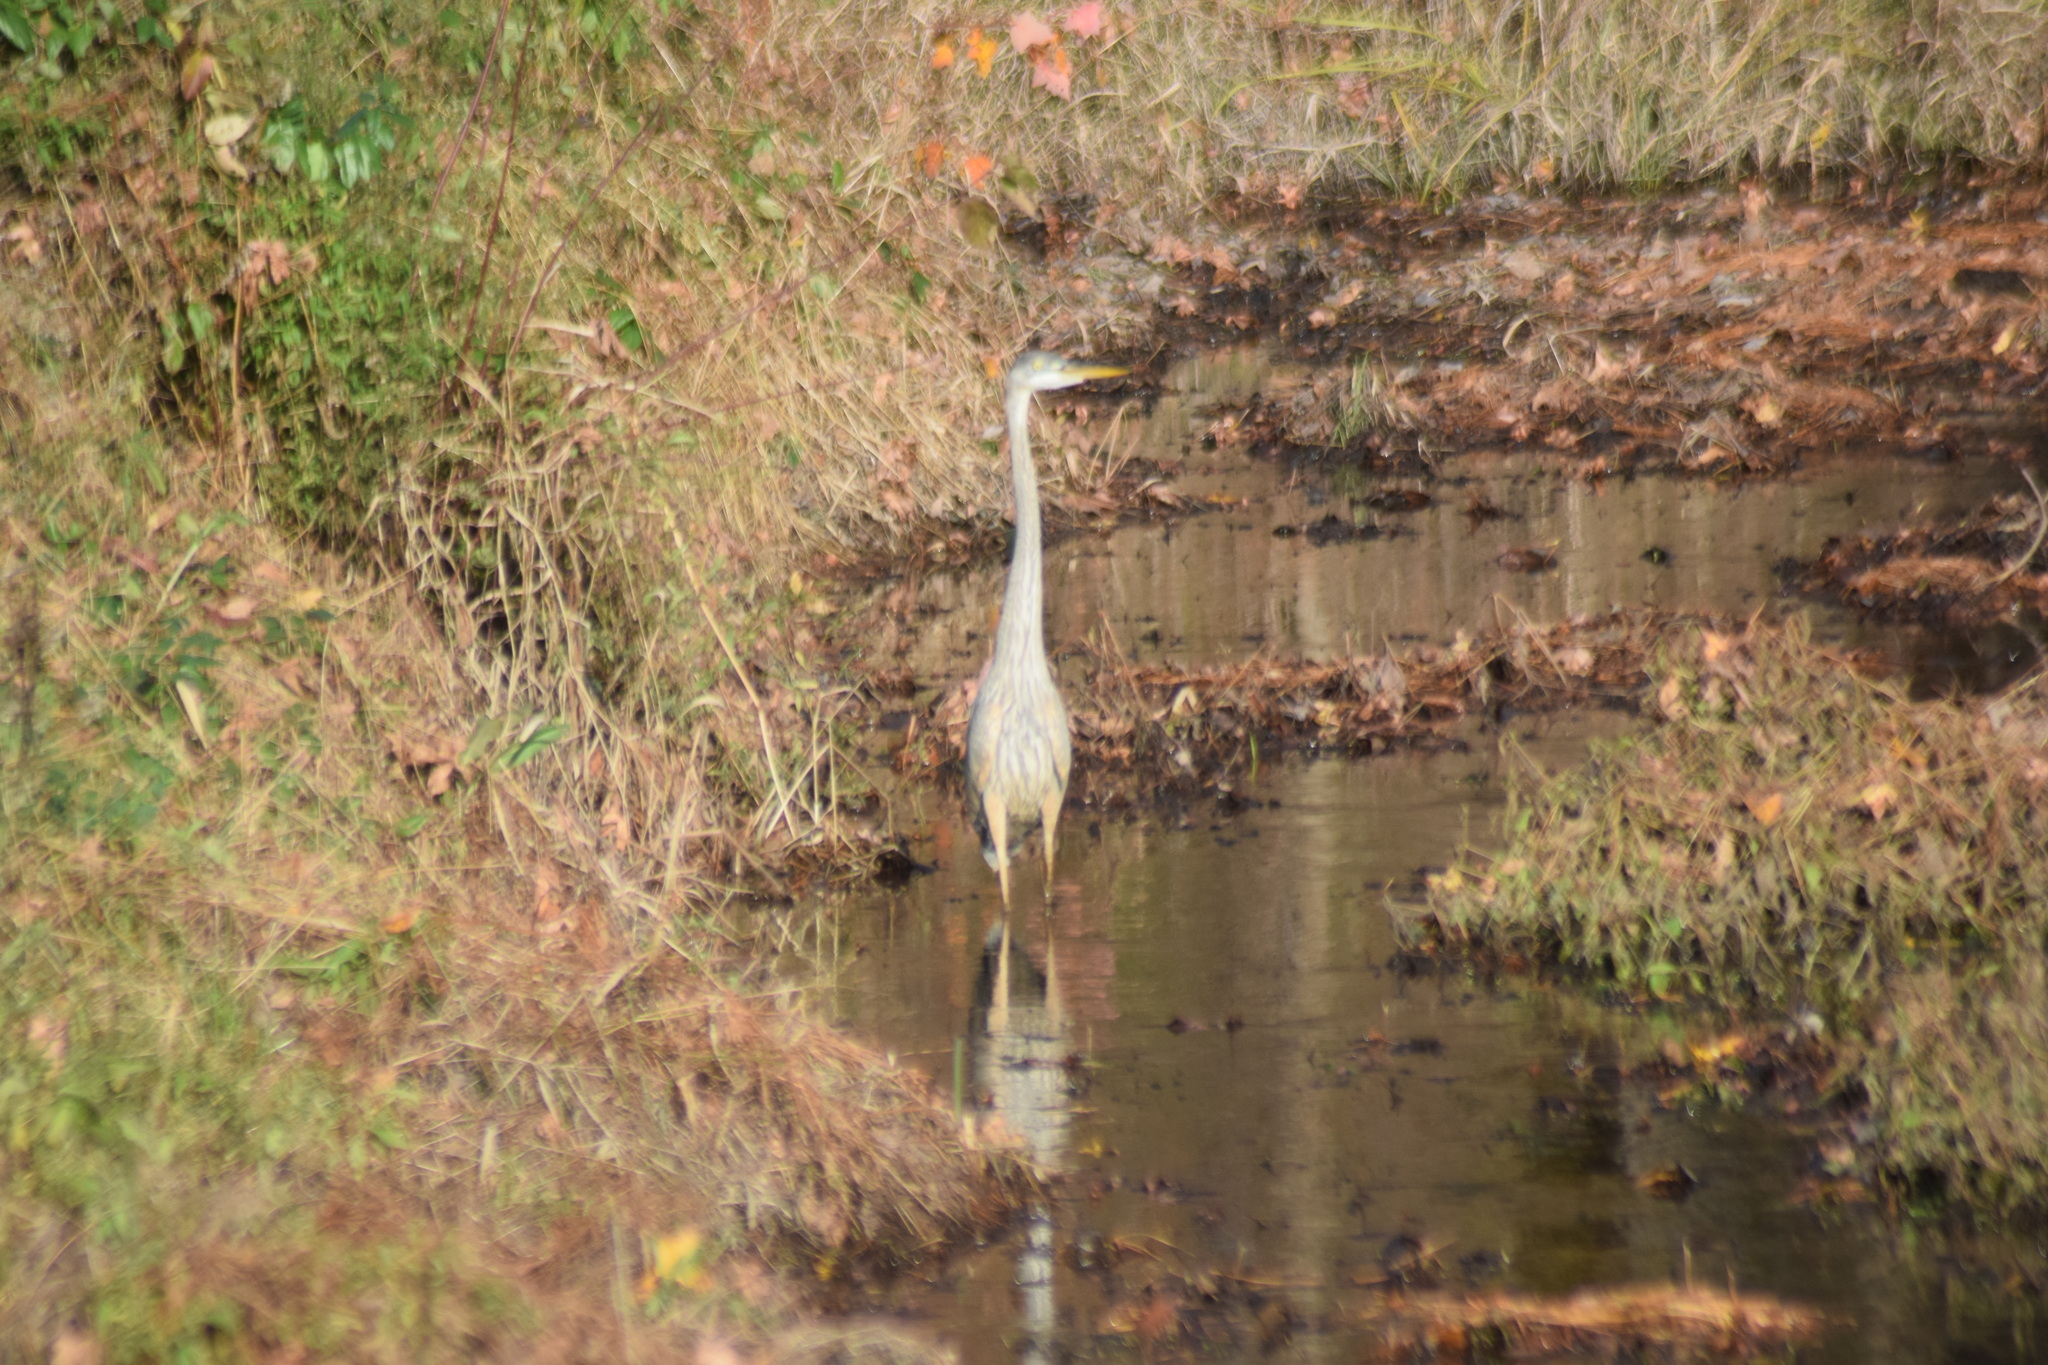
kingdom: Animalia
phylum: Chordata
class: Aves
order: Pelecaniformes
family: Ardeidae
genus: Ardea
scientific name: Ardea herodias
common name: Great blue heron
